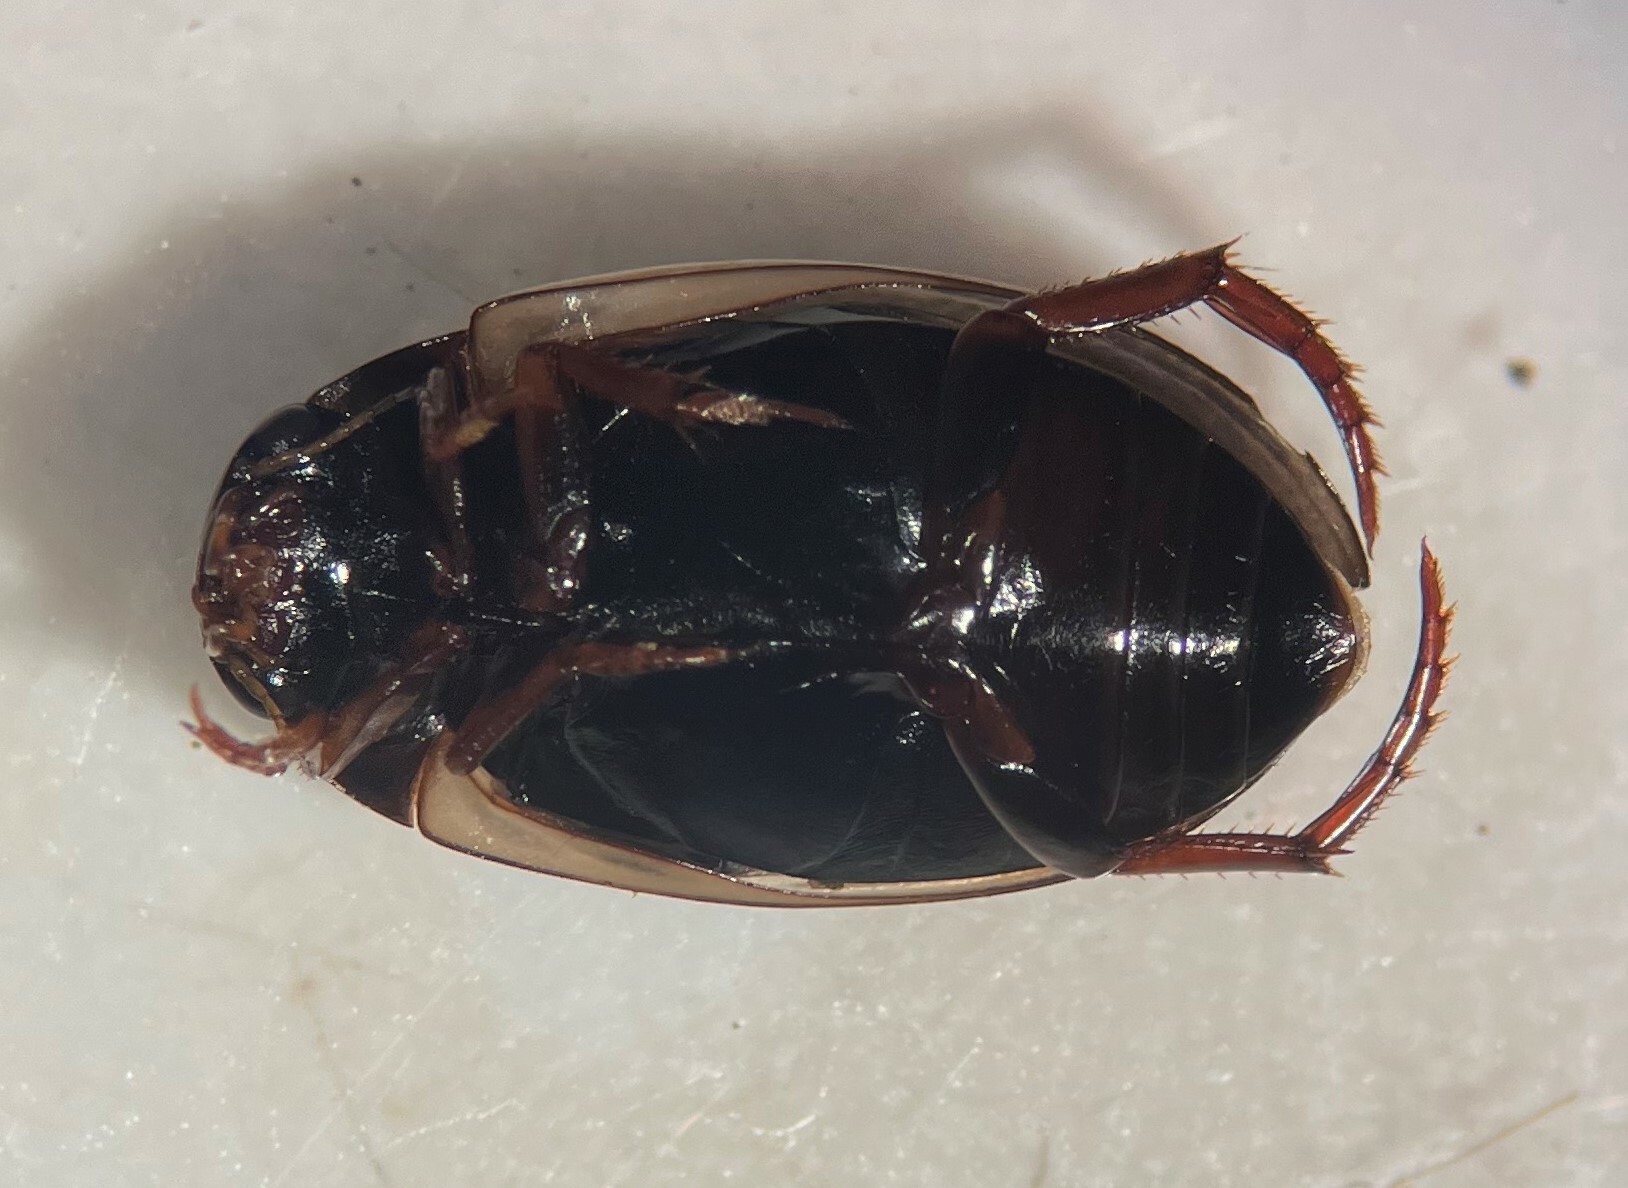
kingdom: Animalia
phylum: Arthropoda
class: Insecta
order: Coleoptera
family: Dytiscidae
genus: Agabus
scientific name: Agabus subfuscatus
